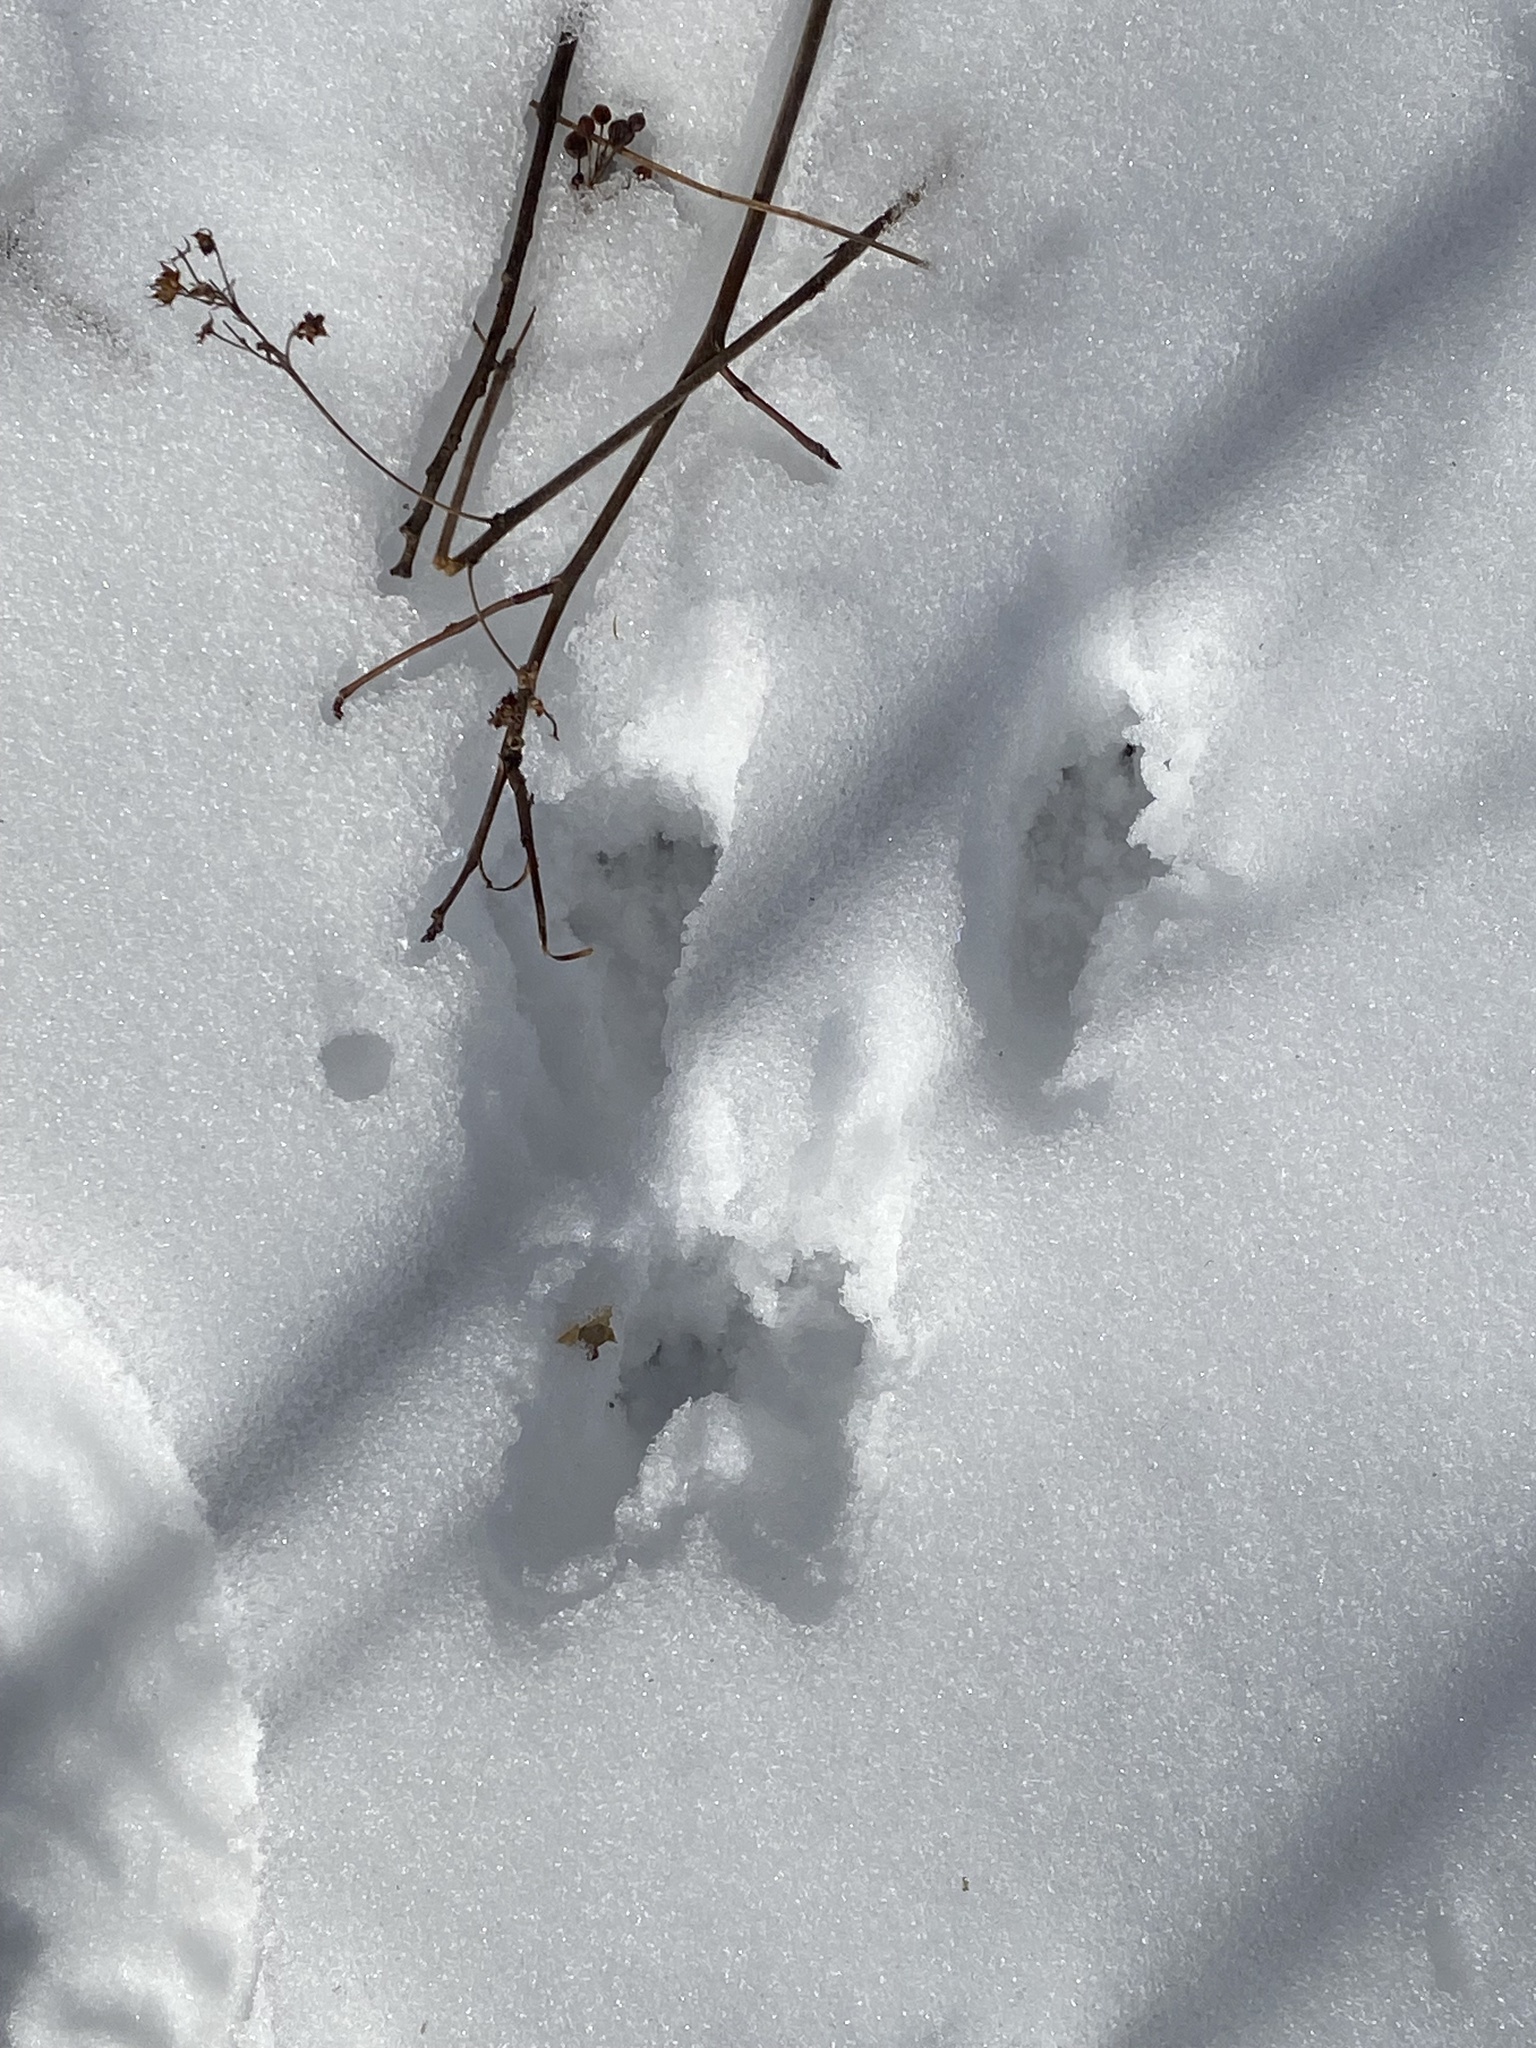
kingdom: Animalia
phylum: Chordata
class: Mammalia
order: Rodentia
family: Sciuridae
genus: Sciurus
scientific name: Sciurus vulgaris
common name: Eurasian red squirrel
